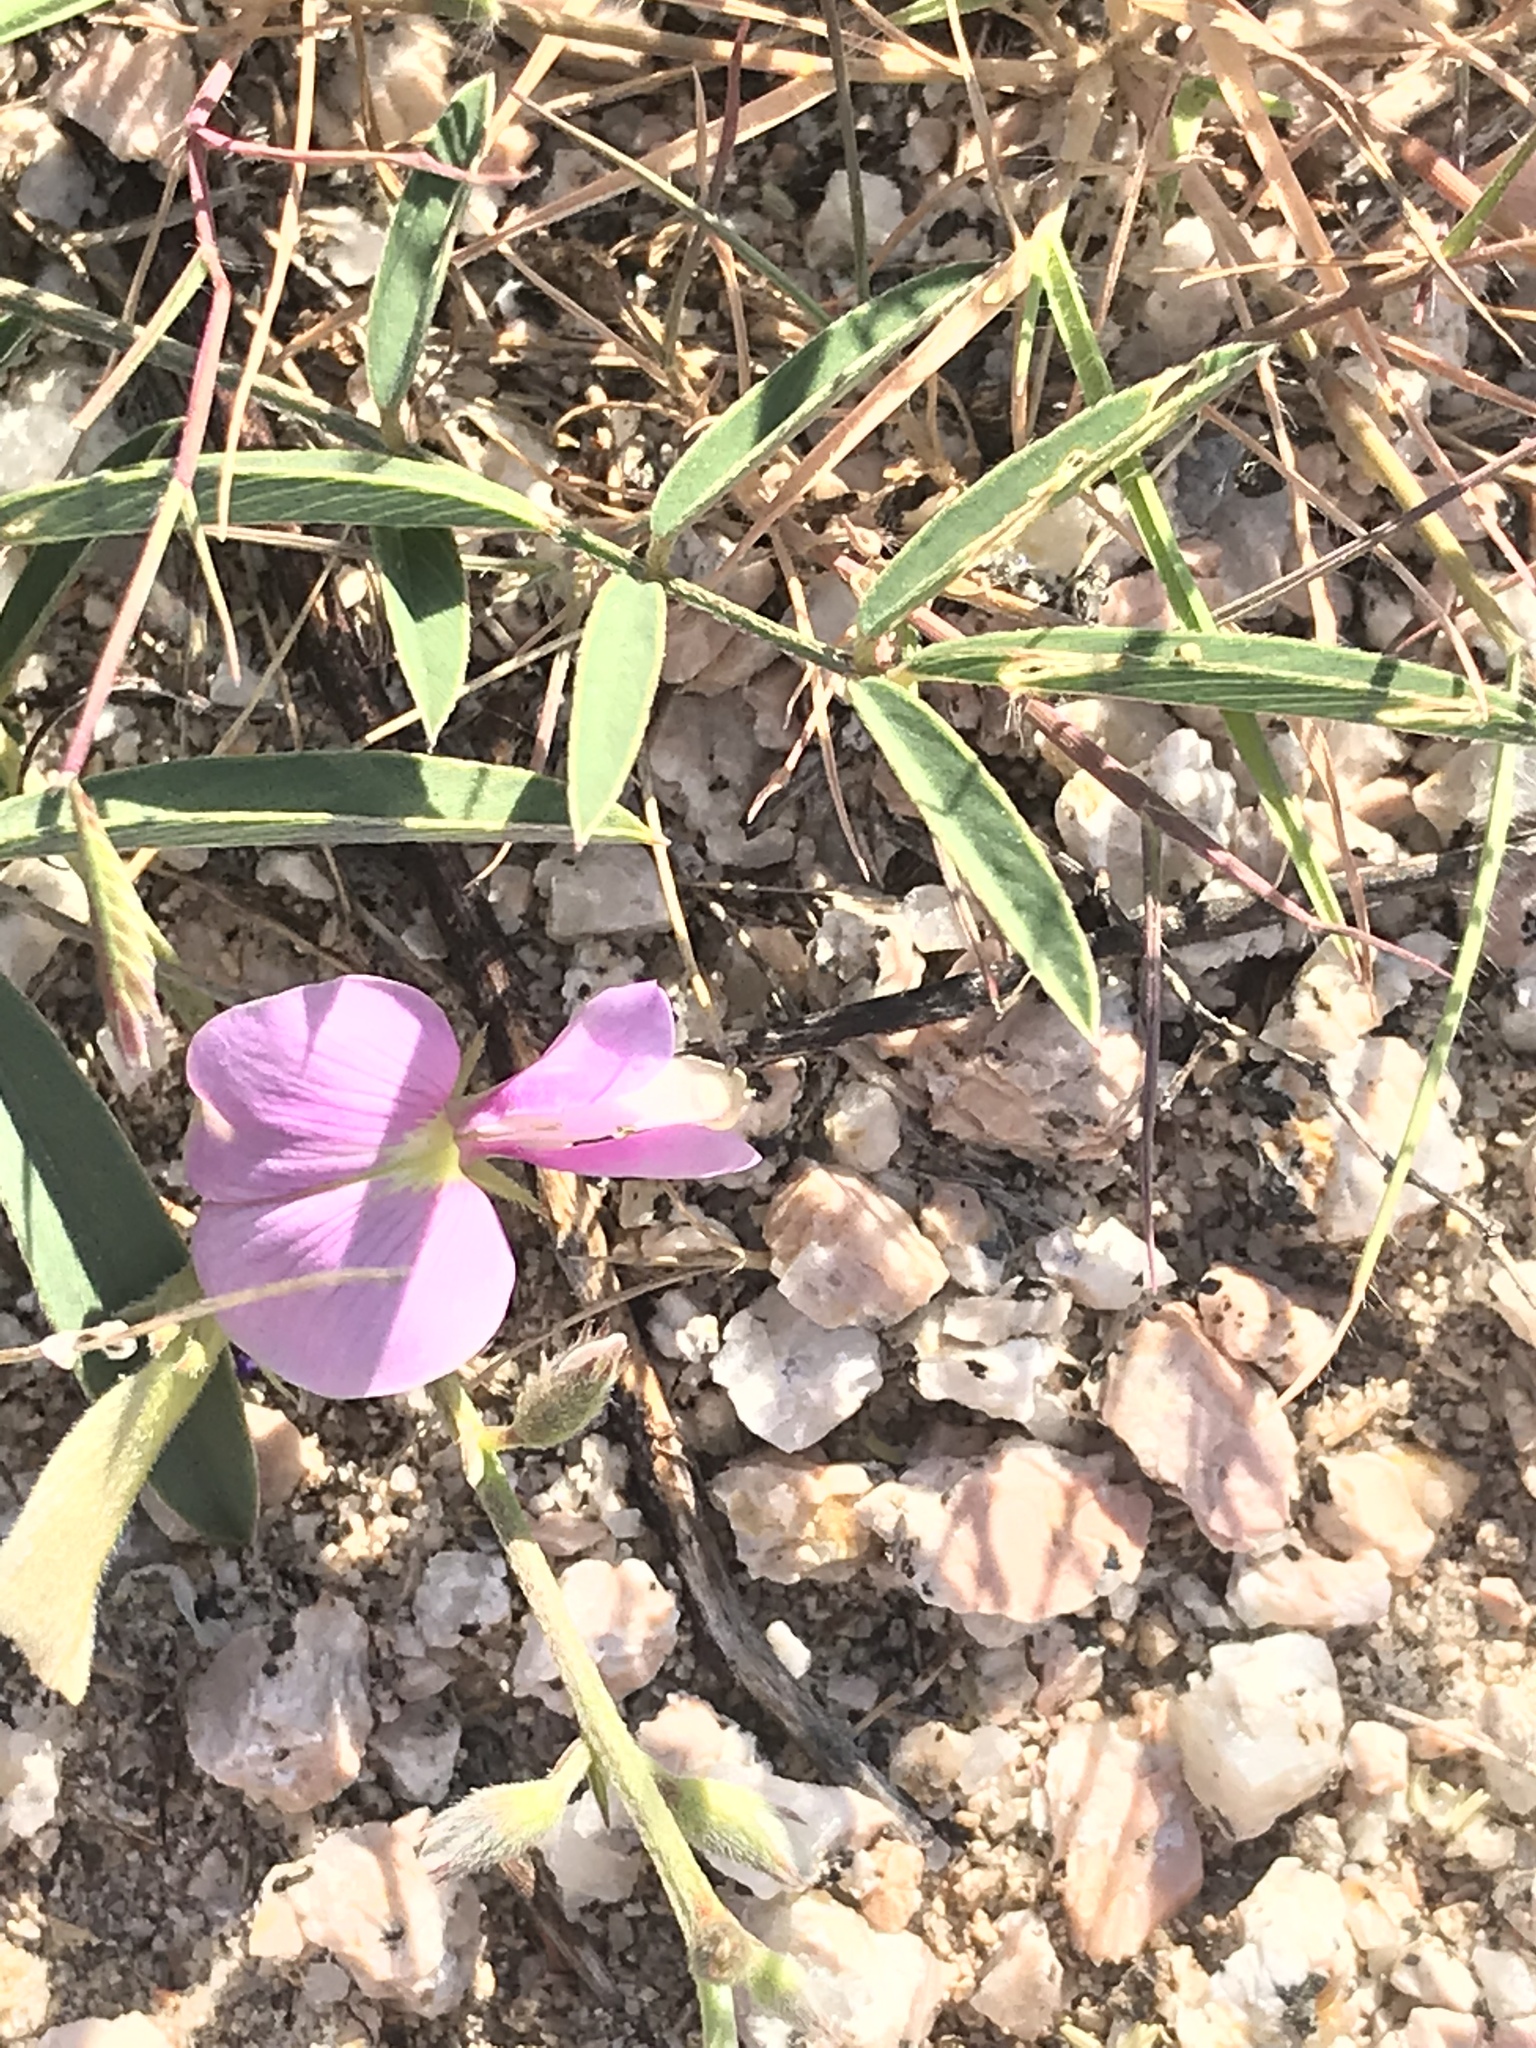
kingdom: Plantae
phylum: Tracheophyta
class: Magnoliopsida
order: Fabales
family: Fabaceae
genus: Tephrosia
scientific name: Tephrosia palmeri
